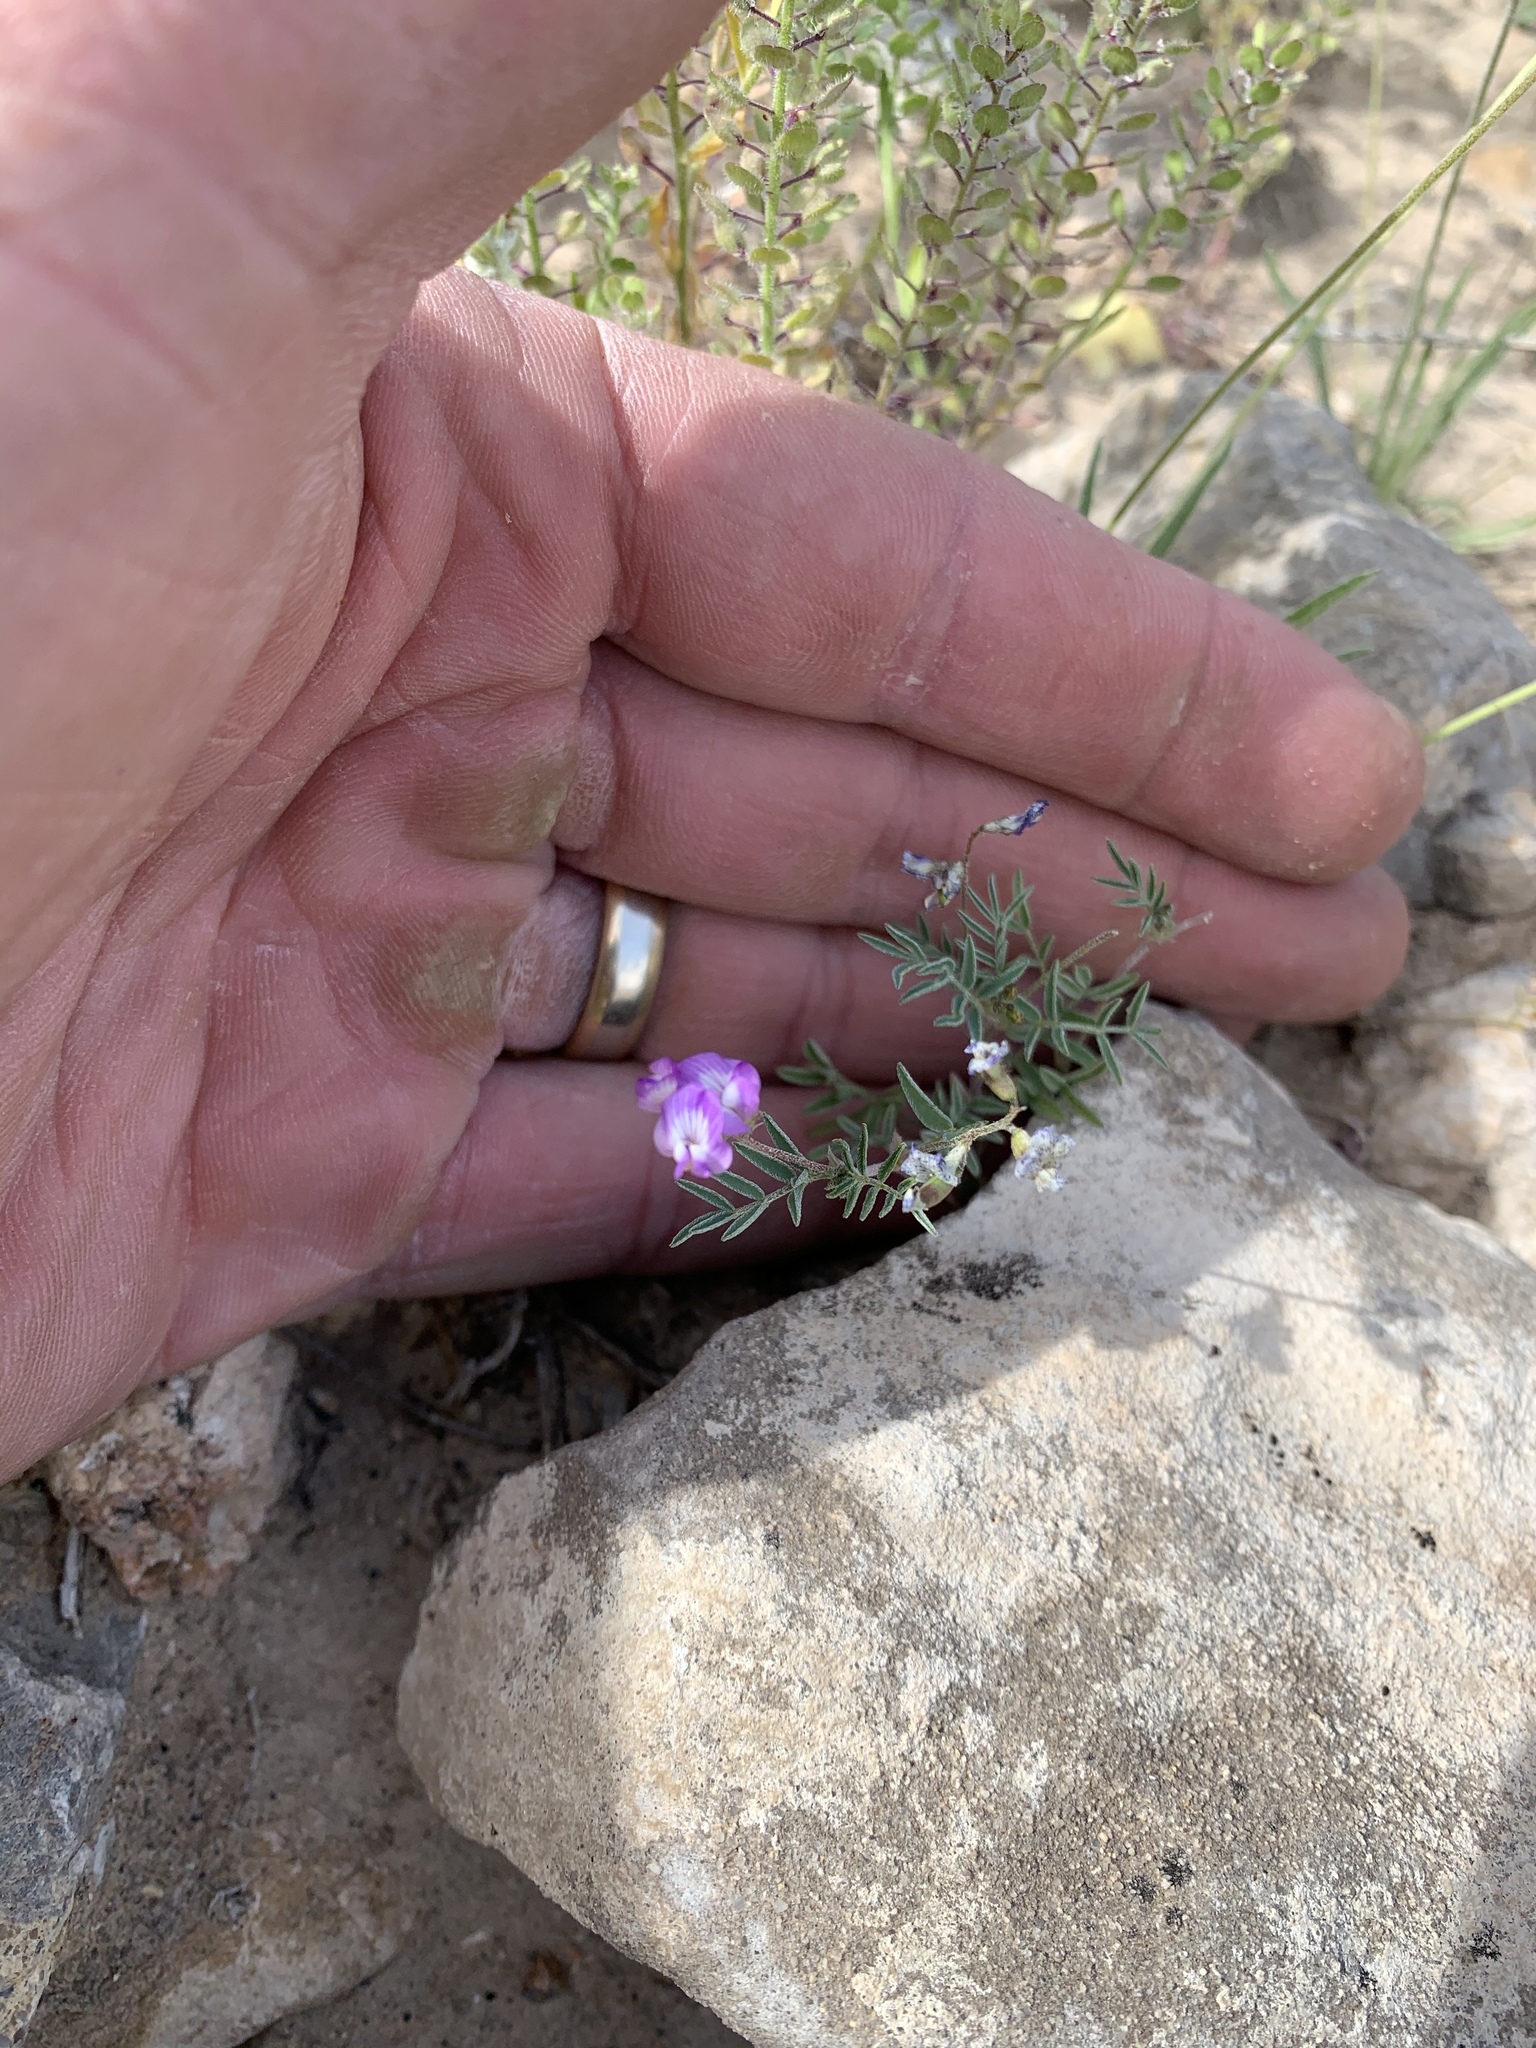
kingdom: Plantae
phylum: Tracheophyta
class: Magnoliopsida
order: Fabales
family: Fabaceae
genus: Astragalus
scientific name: Astragalus nuttallianus
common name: Smallflowered milkvetch
